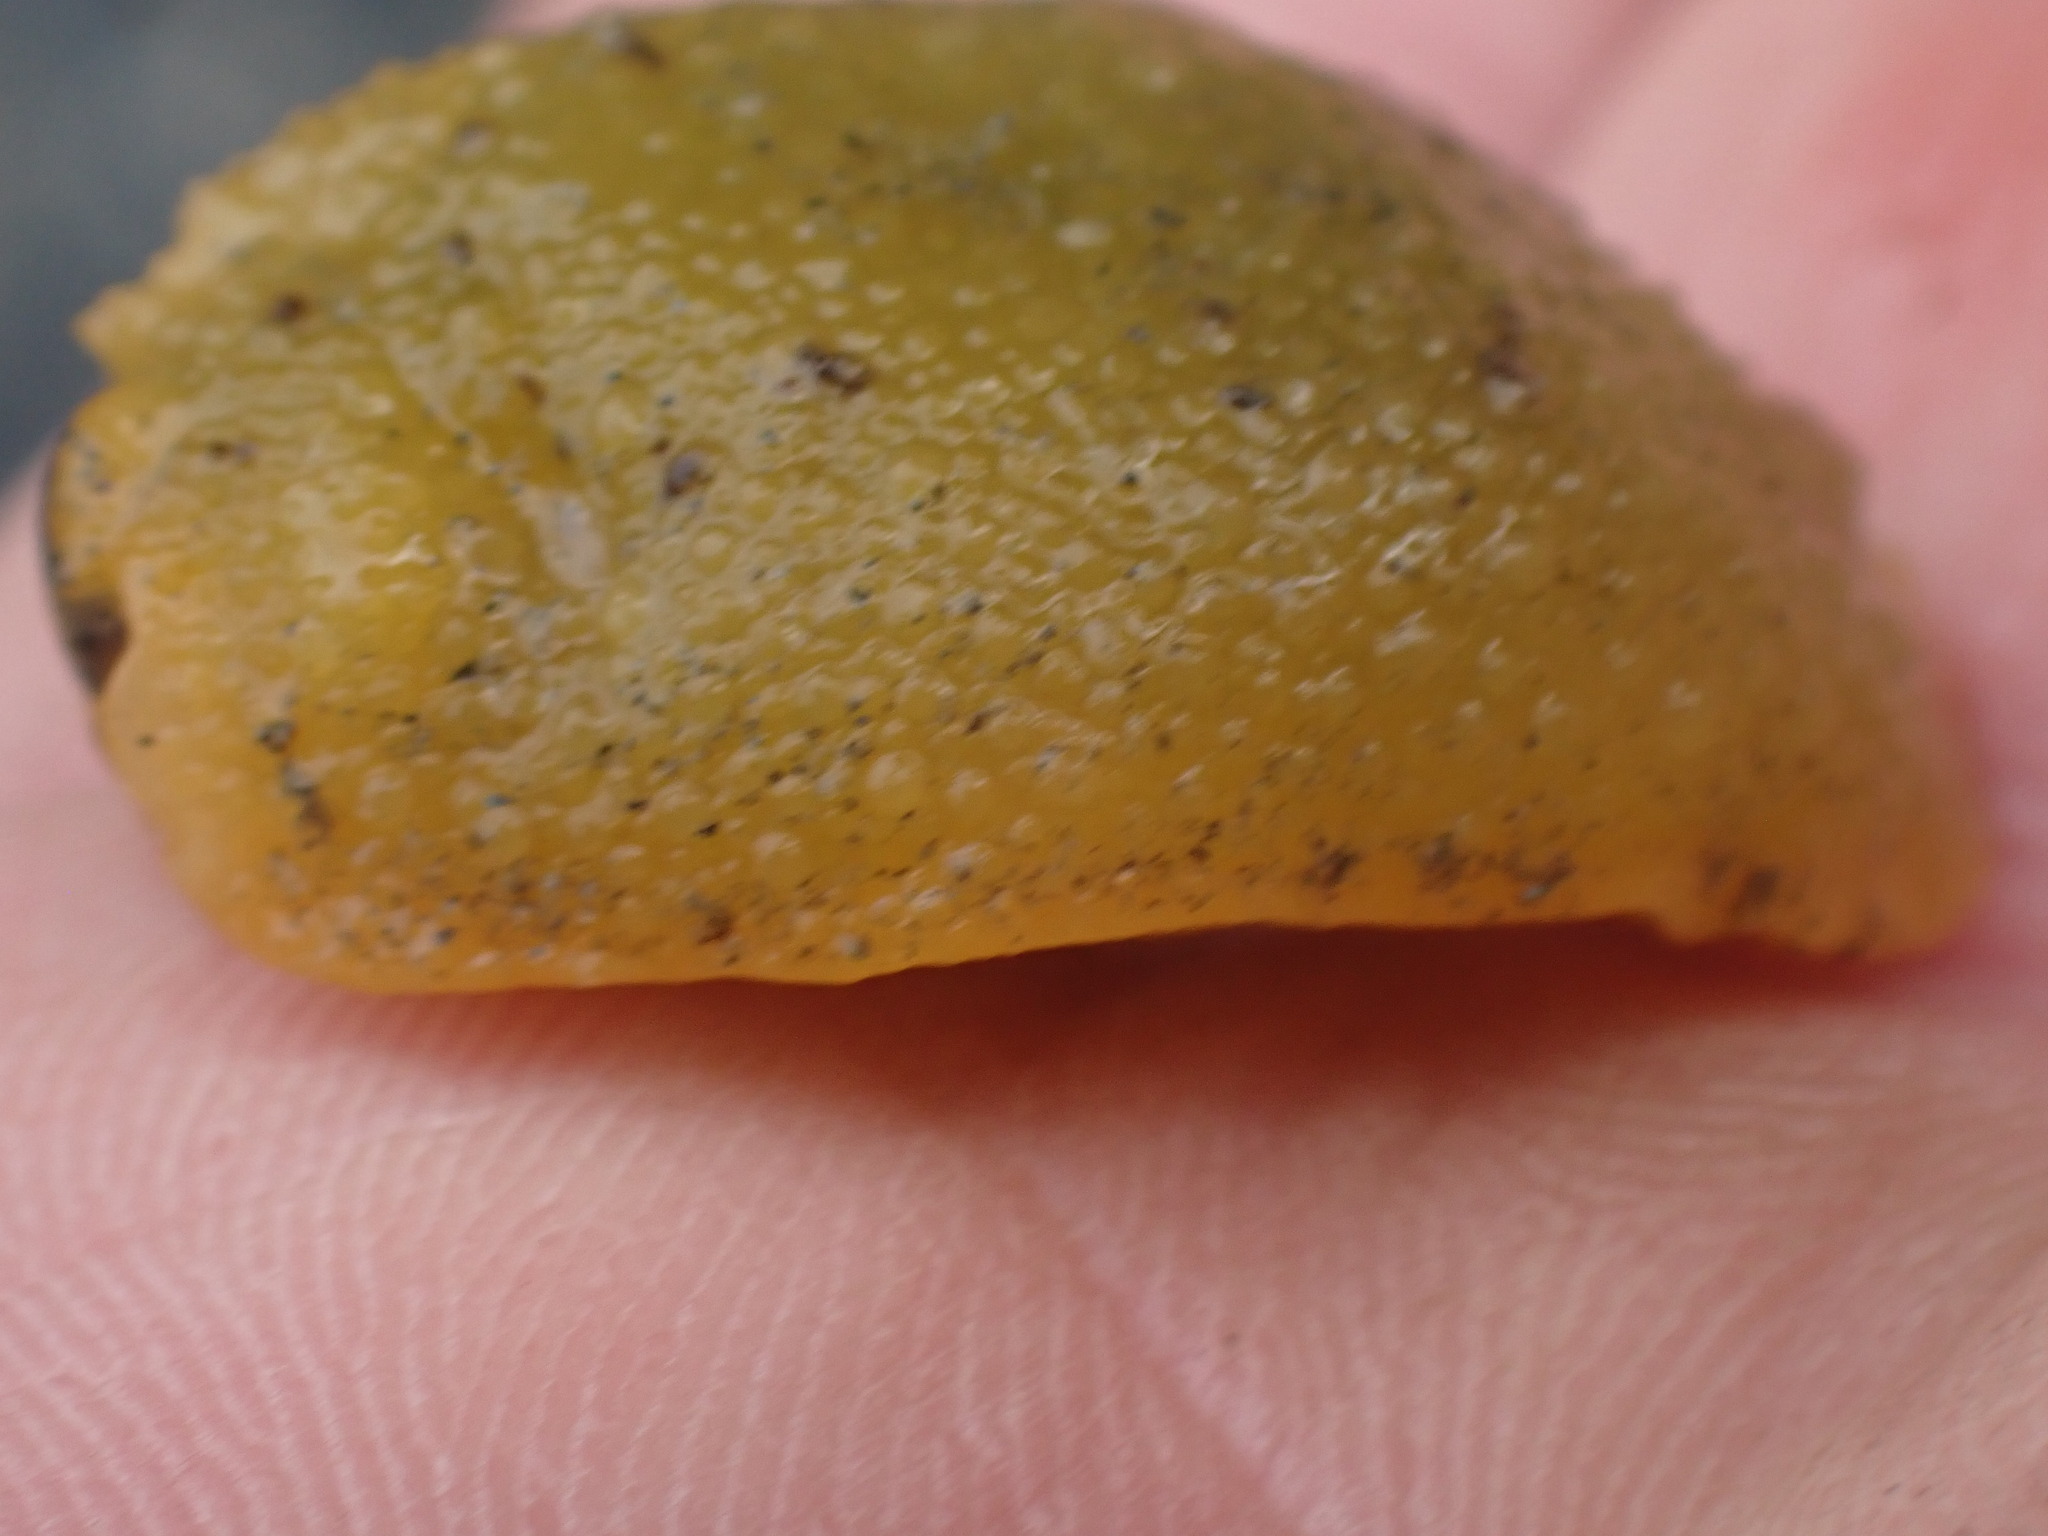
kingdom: Animalia
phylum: Mollusca
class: Gastropoda
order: Nudibranchia
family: Dorididae
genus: Doris
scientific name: Doris montereyensis
